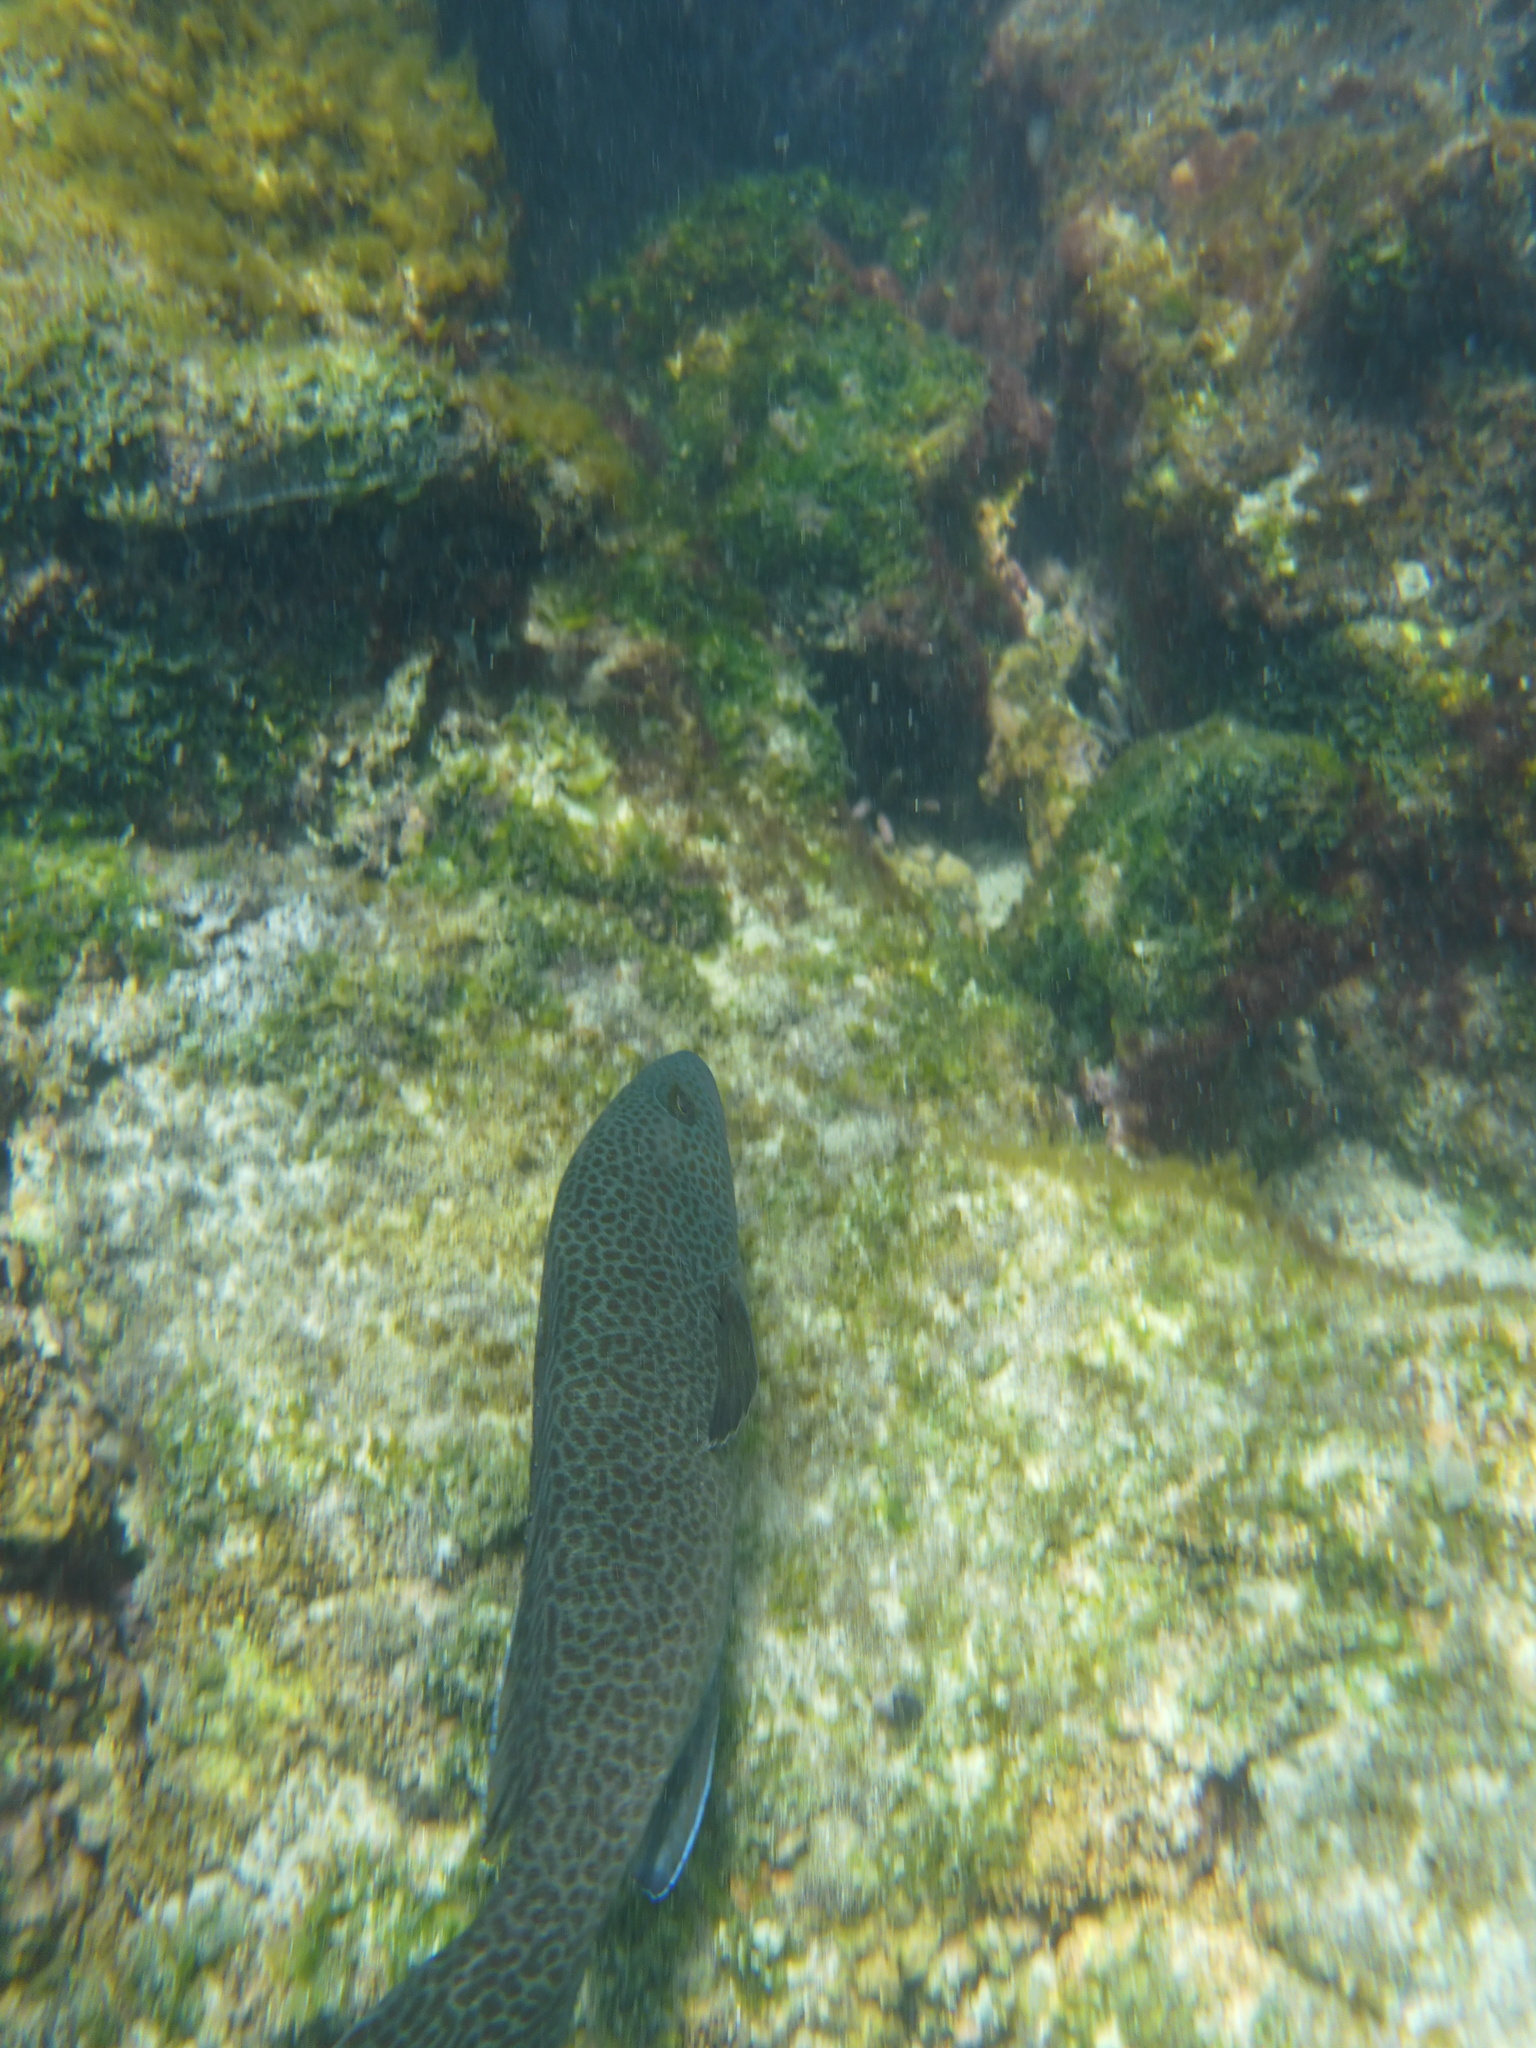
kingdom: Animalia
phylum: Chordata
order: Perciformes
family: Serranidae
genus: Epinephelus
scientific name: Epinephelus analogus
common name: Spotted cabrilla
